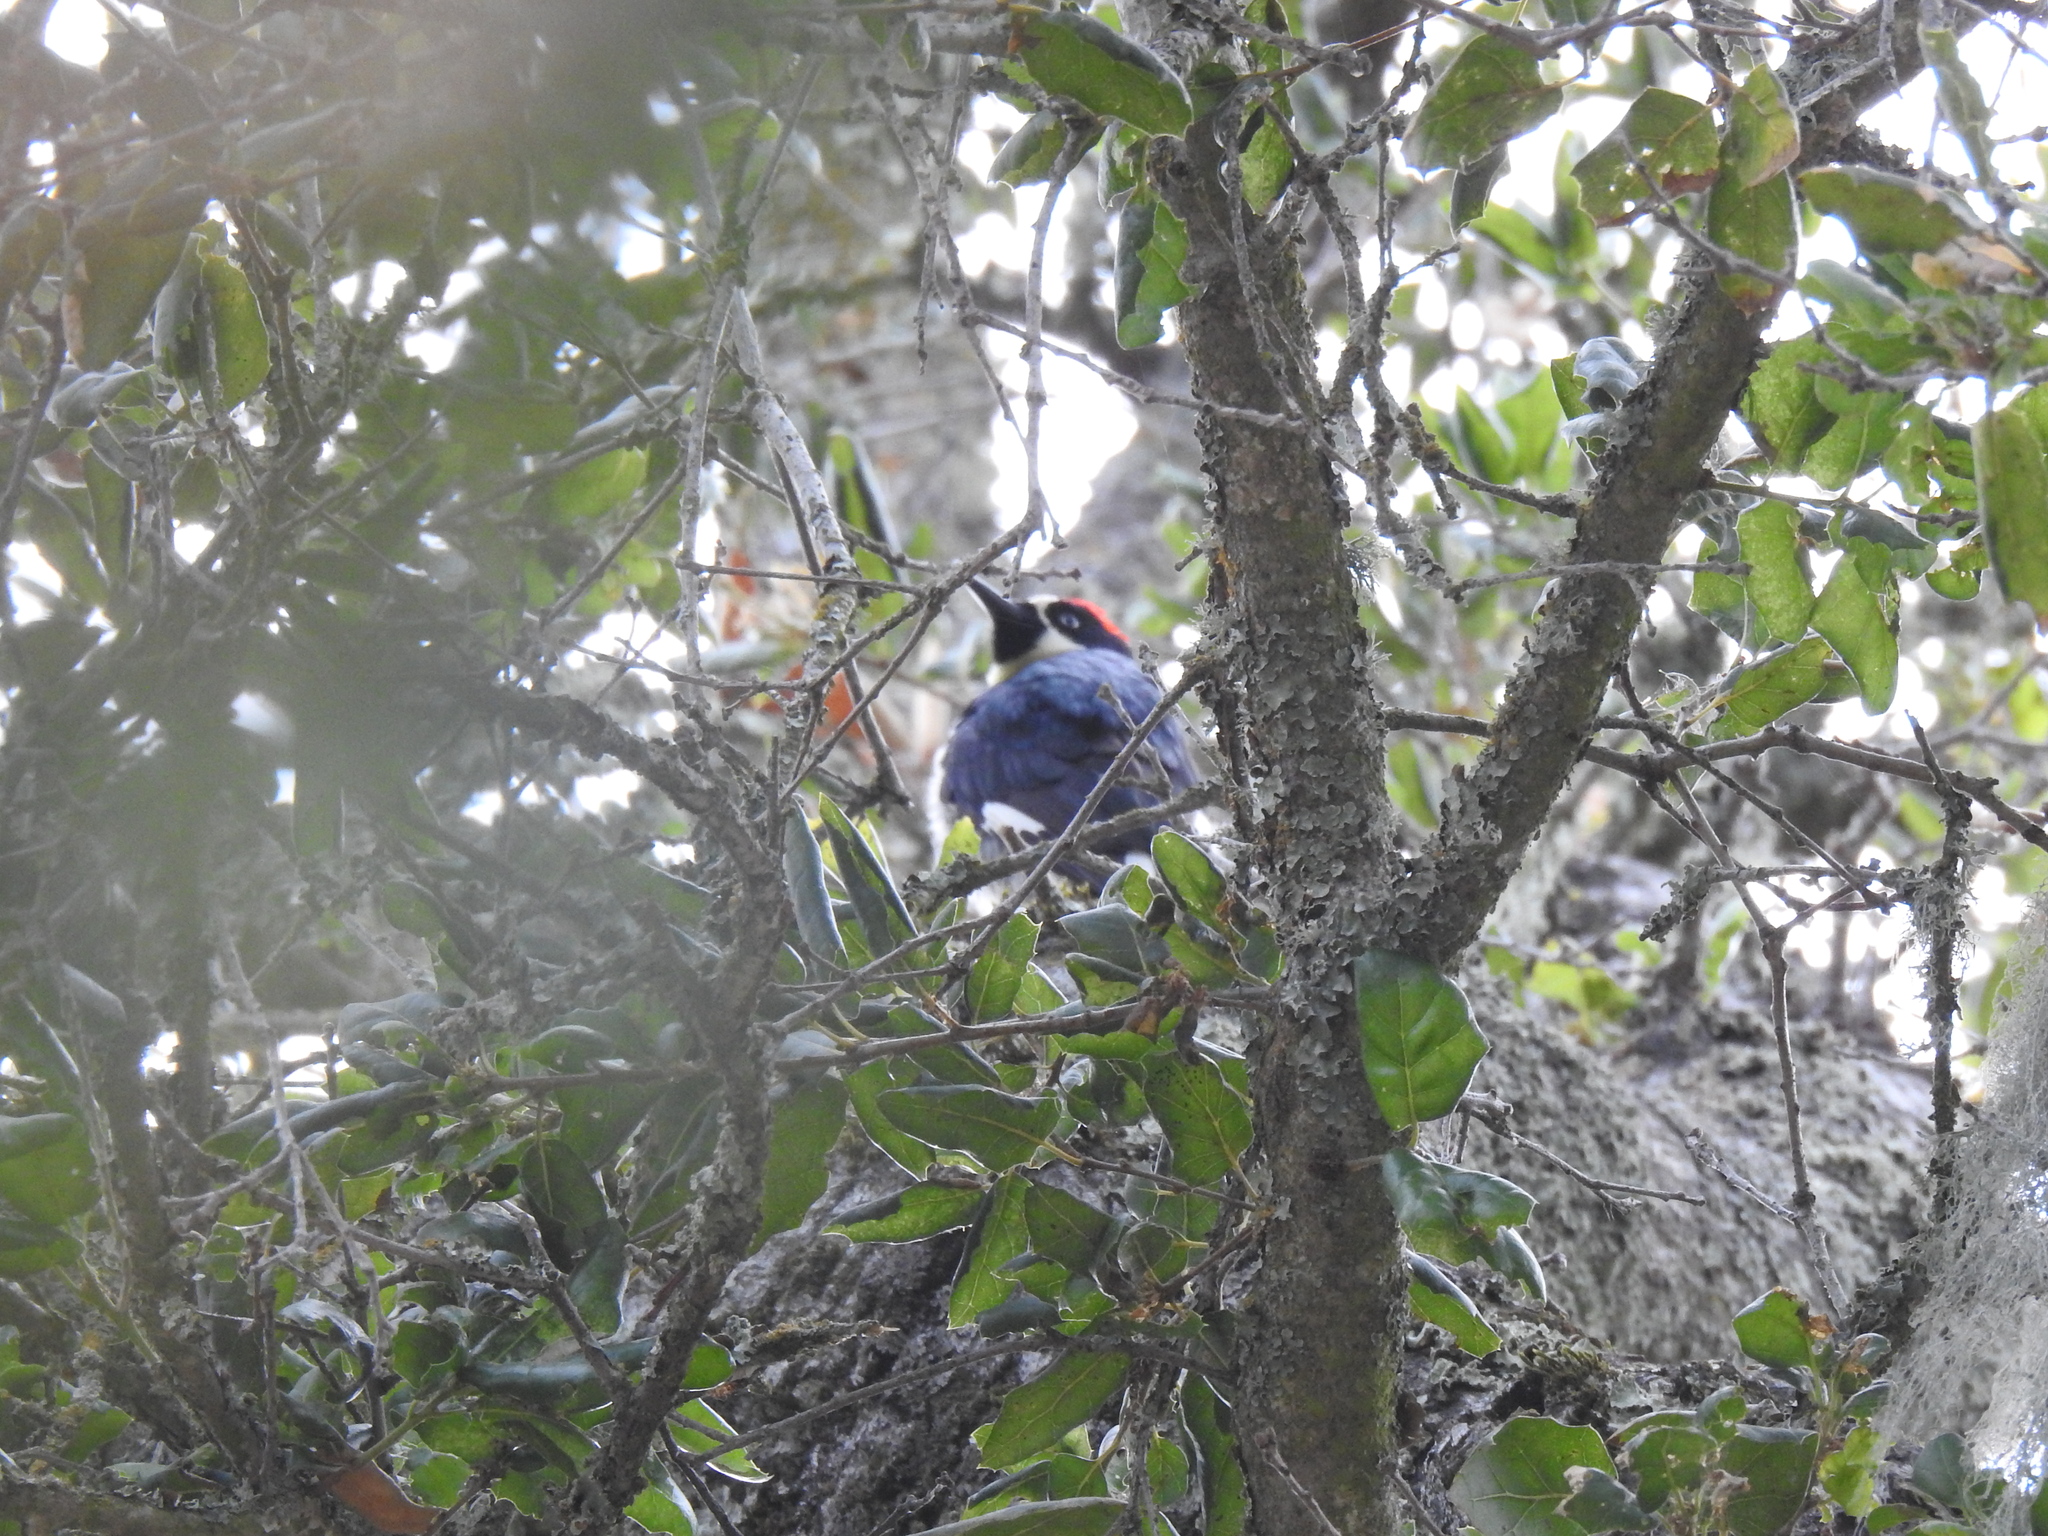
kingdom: Animalia
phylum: Chordata
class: Aves
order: Piciformes
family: Picidae
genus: Melanerpes
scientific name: Melanerpes formicivorus
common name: Acorn woodpecker
